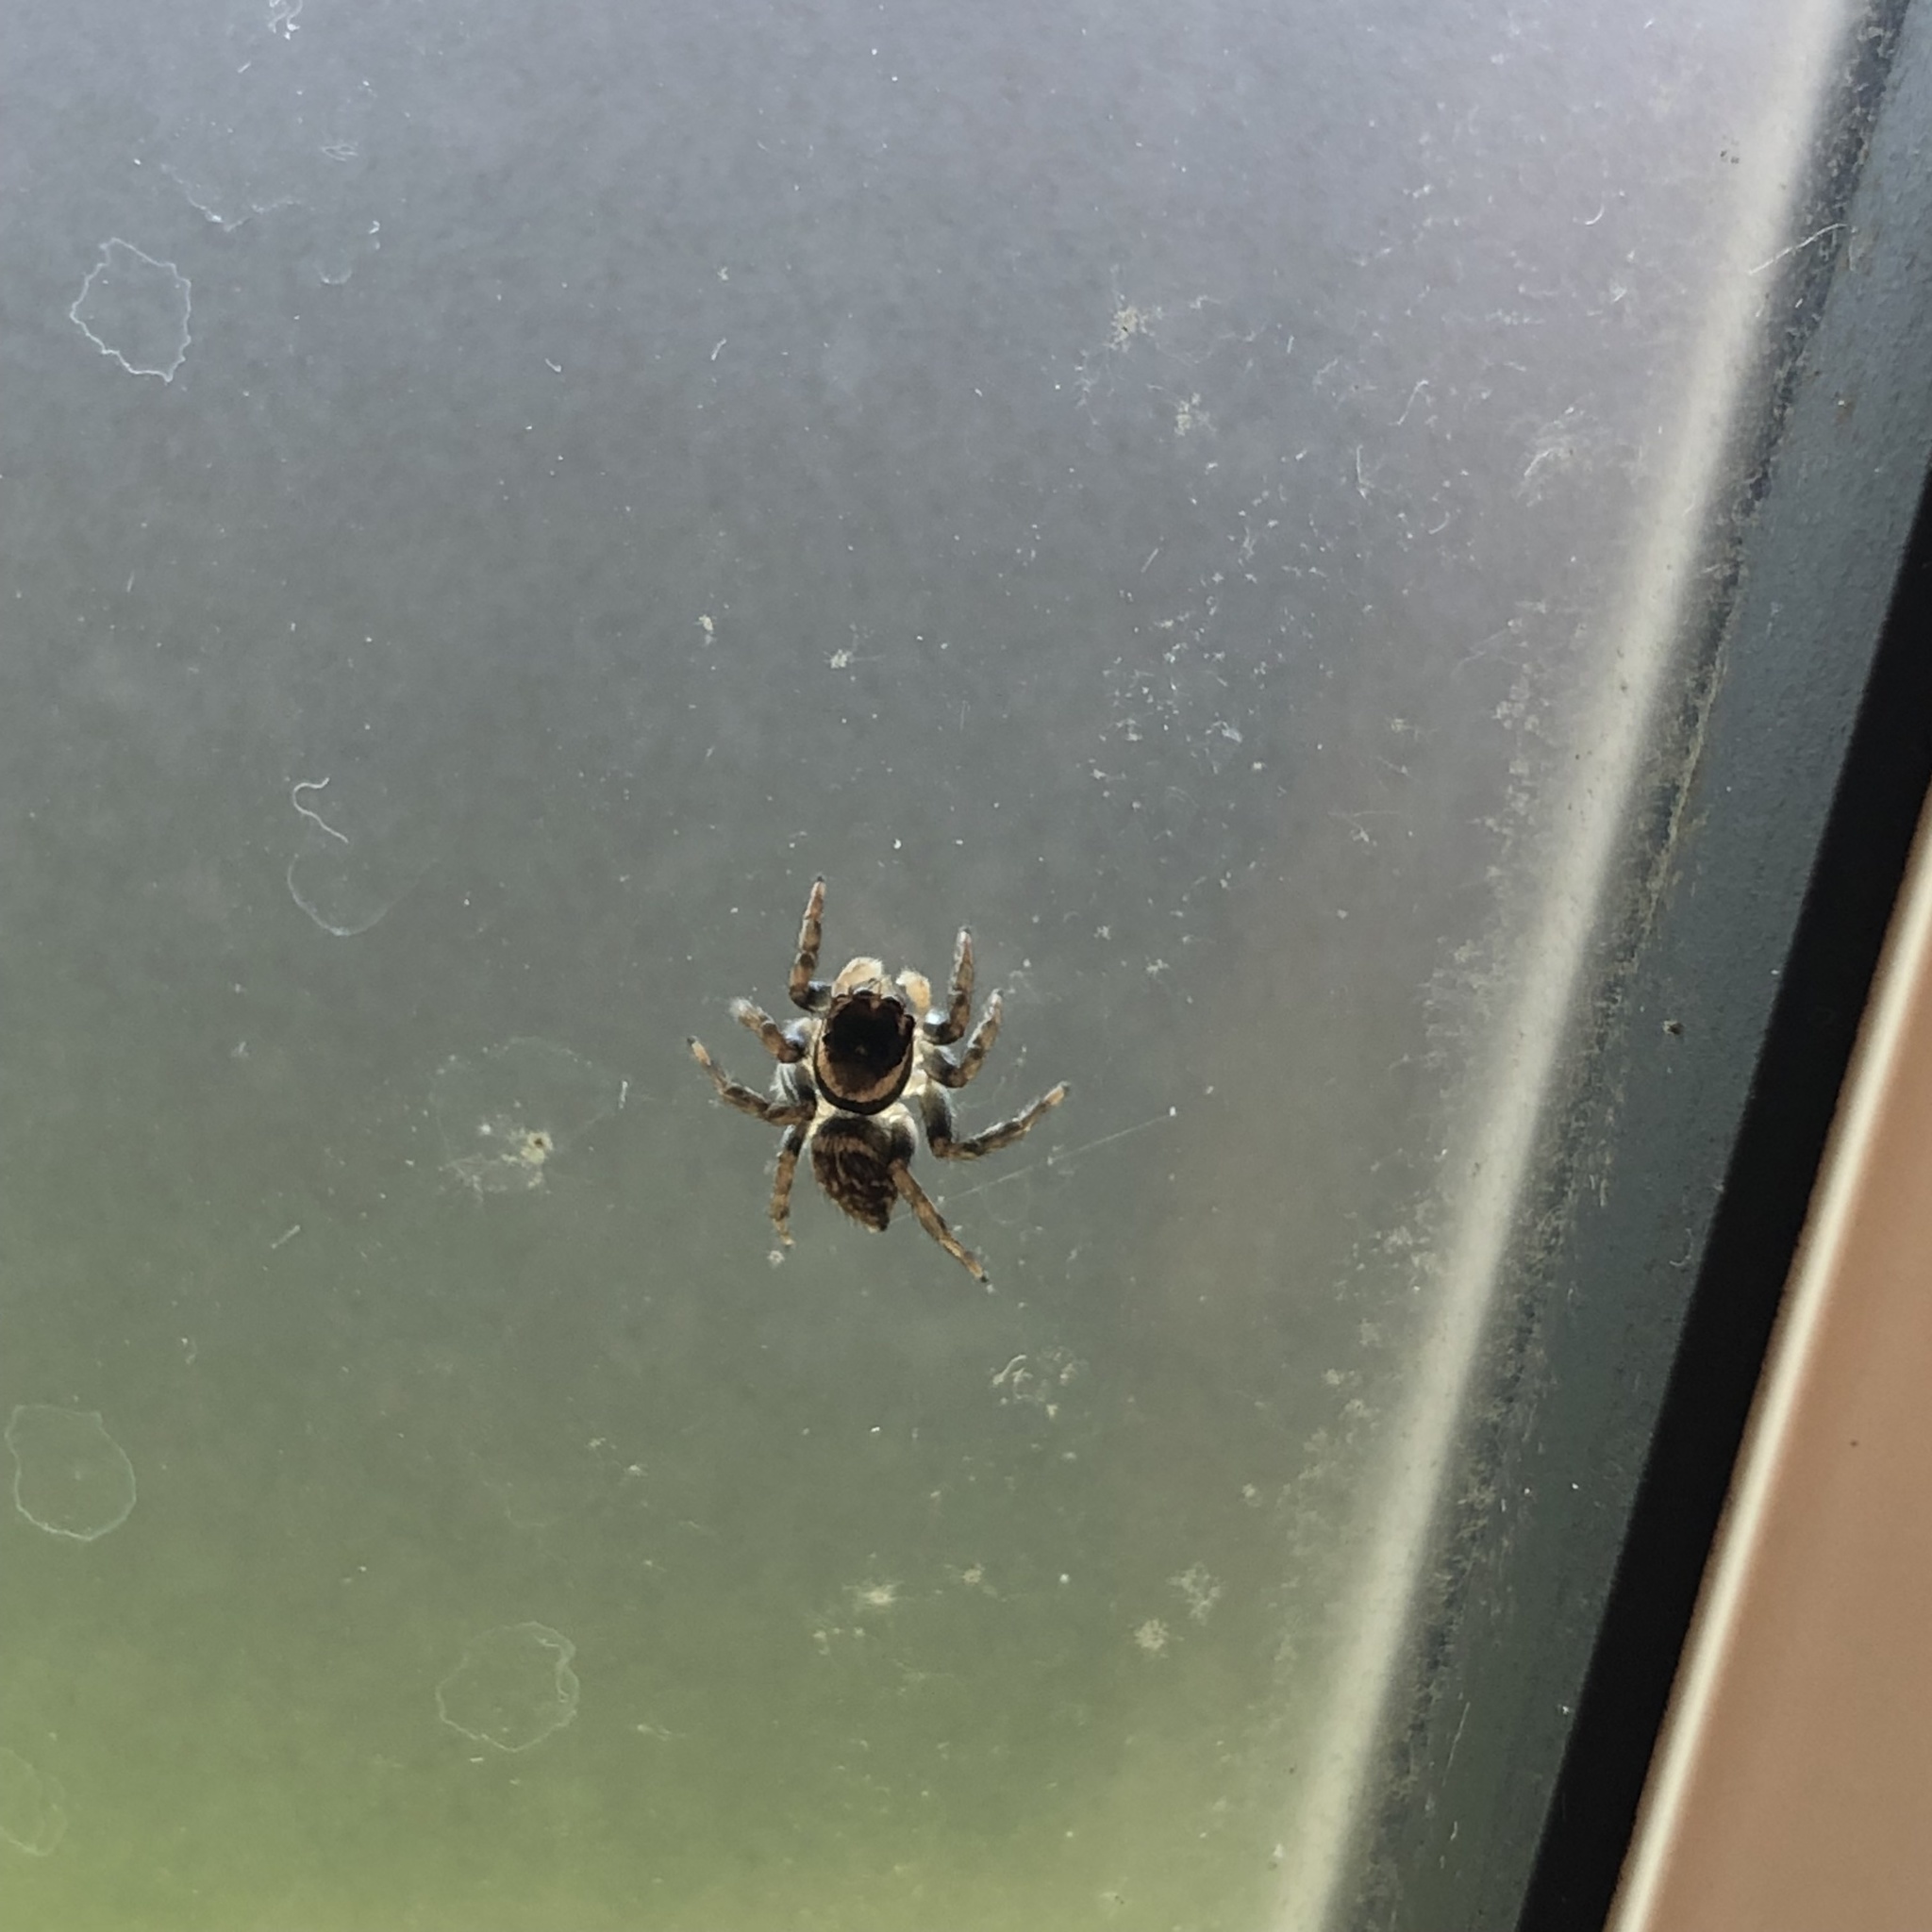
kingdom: Animalia
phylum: Arthropoda
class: Arachnida
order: Araneae
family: Salticidae
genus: Maratus
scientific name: Maratus griseus
